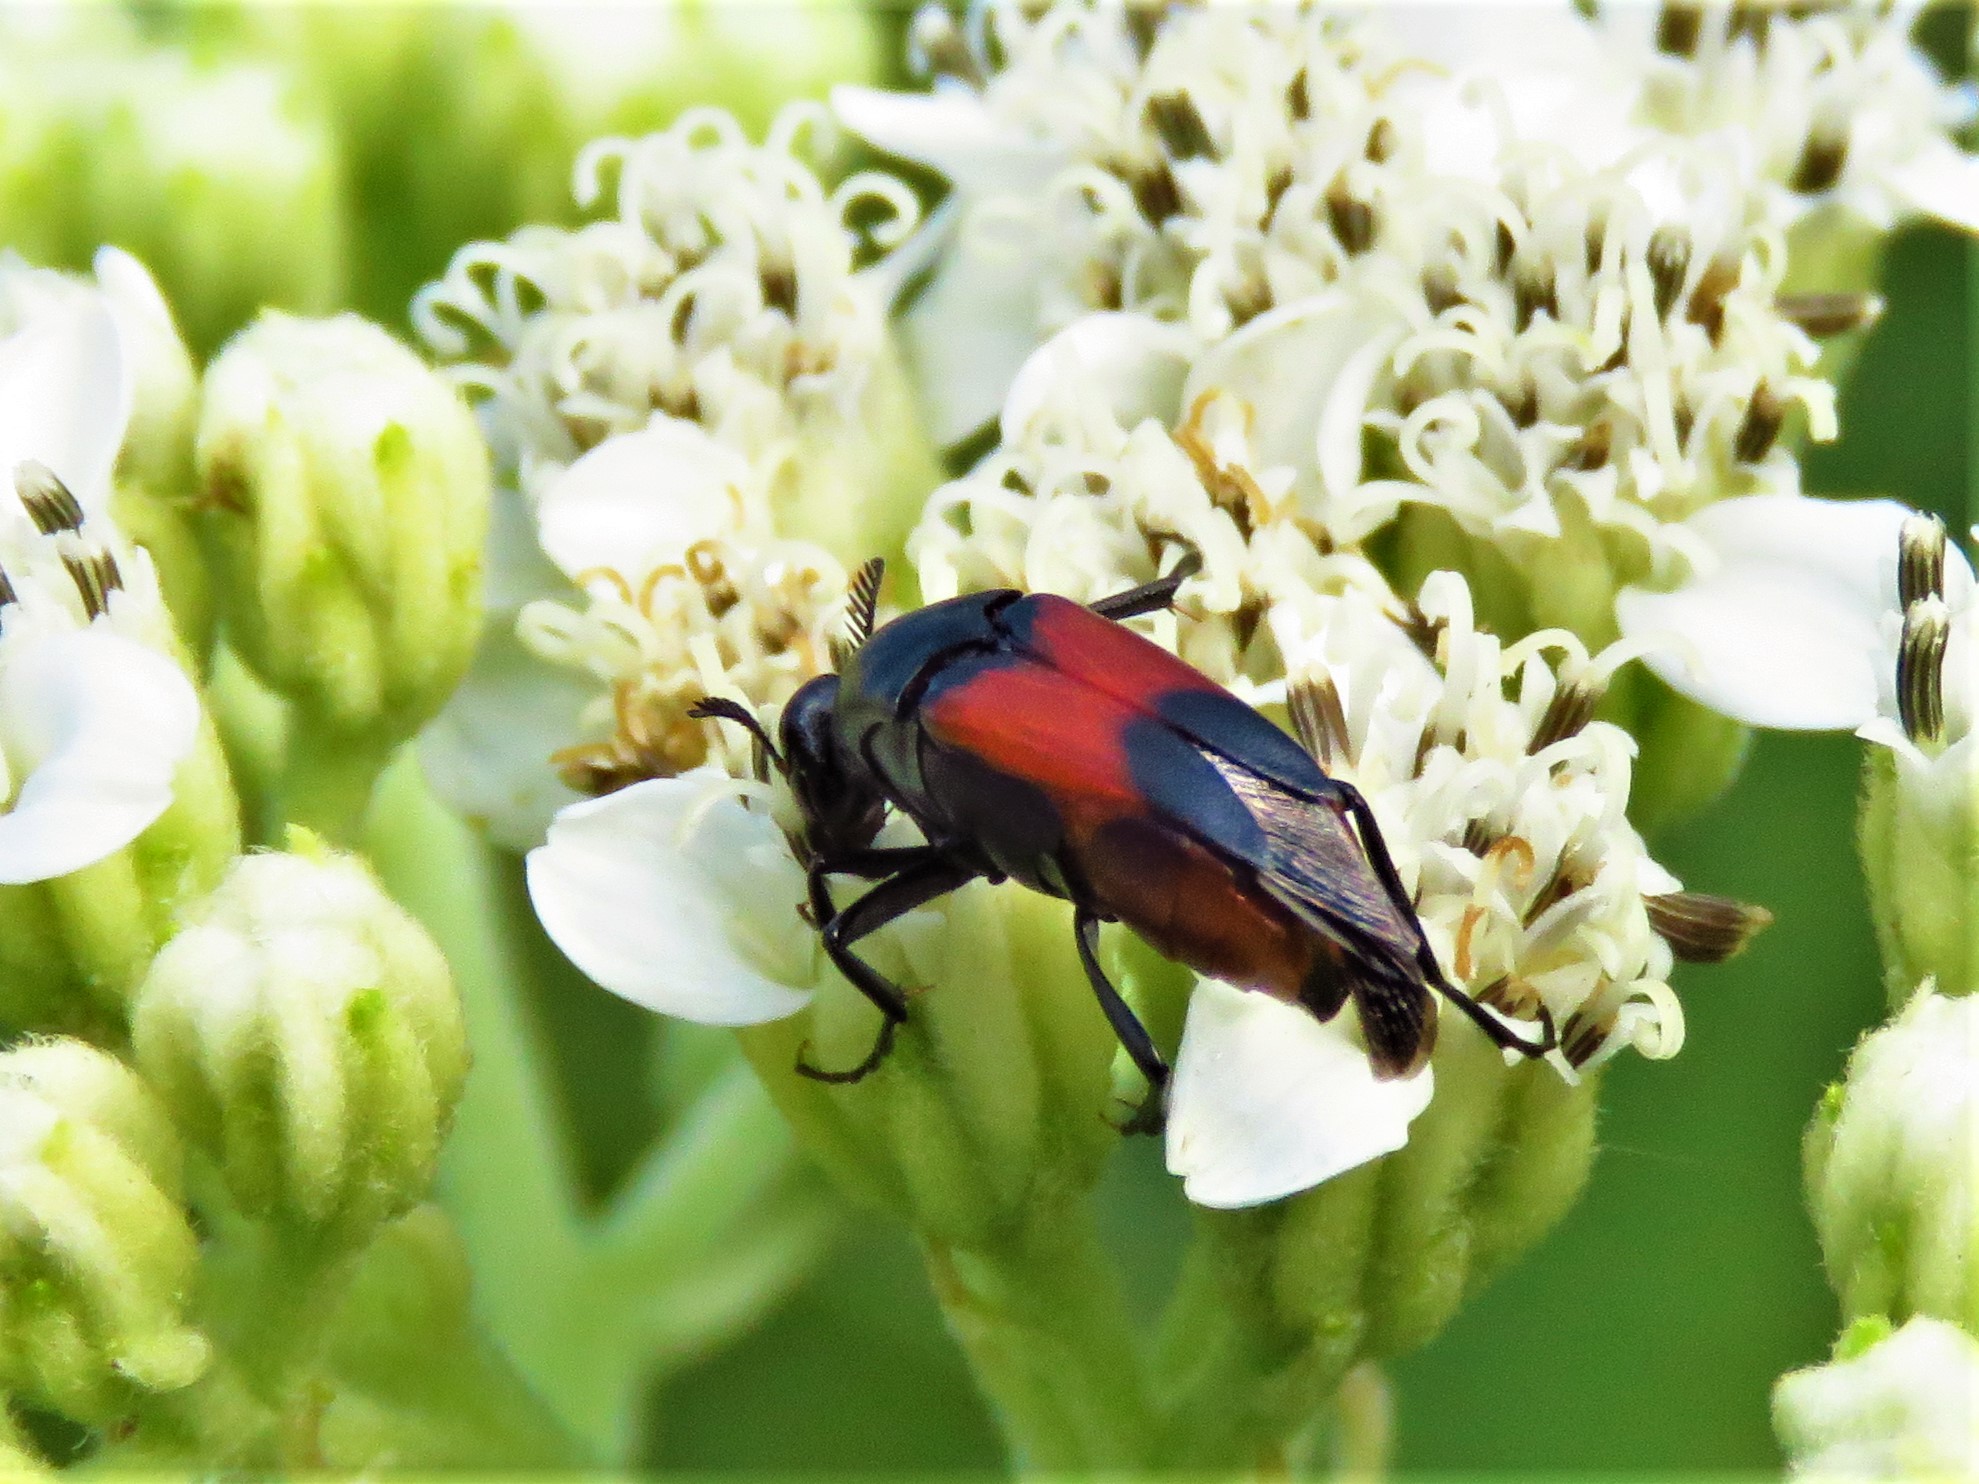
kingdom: Animalia
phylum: Arthropoda
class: Insecta
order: Coleoptera
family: Ripiphoridae
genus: Macrosiagon
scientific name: Macrosiagon cruentum
